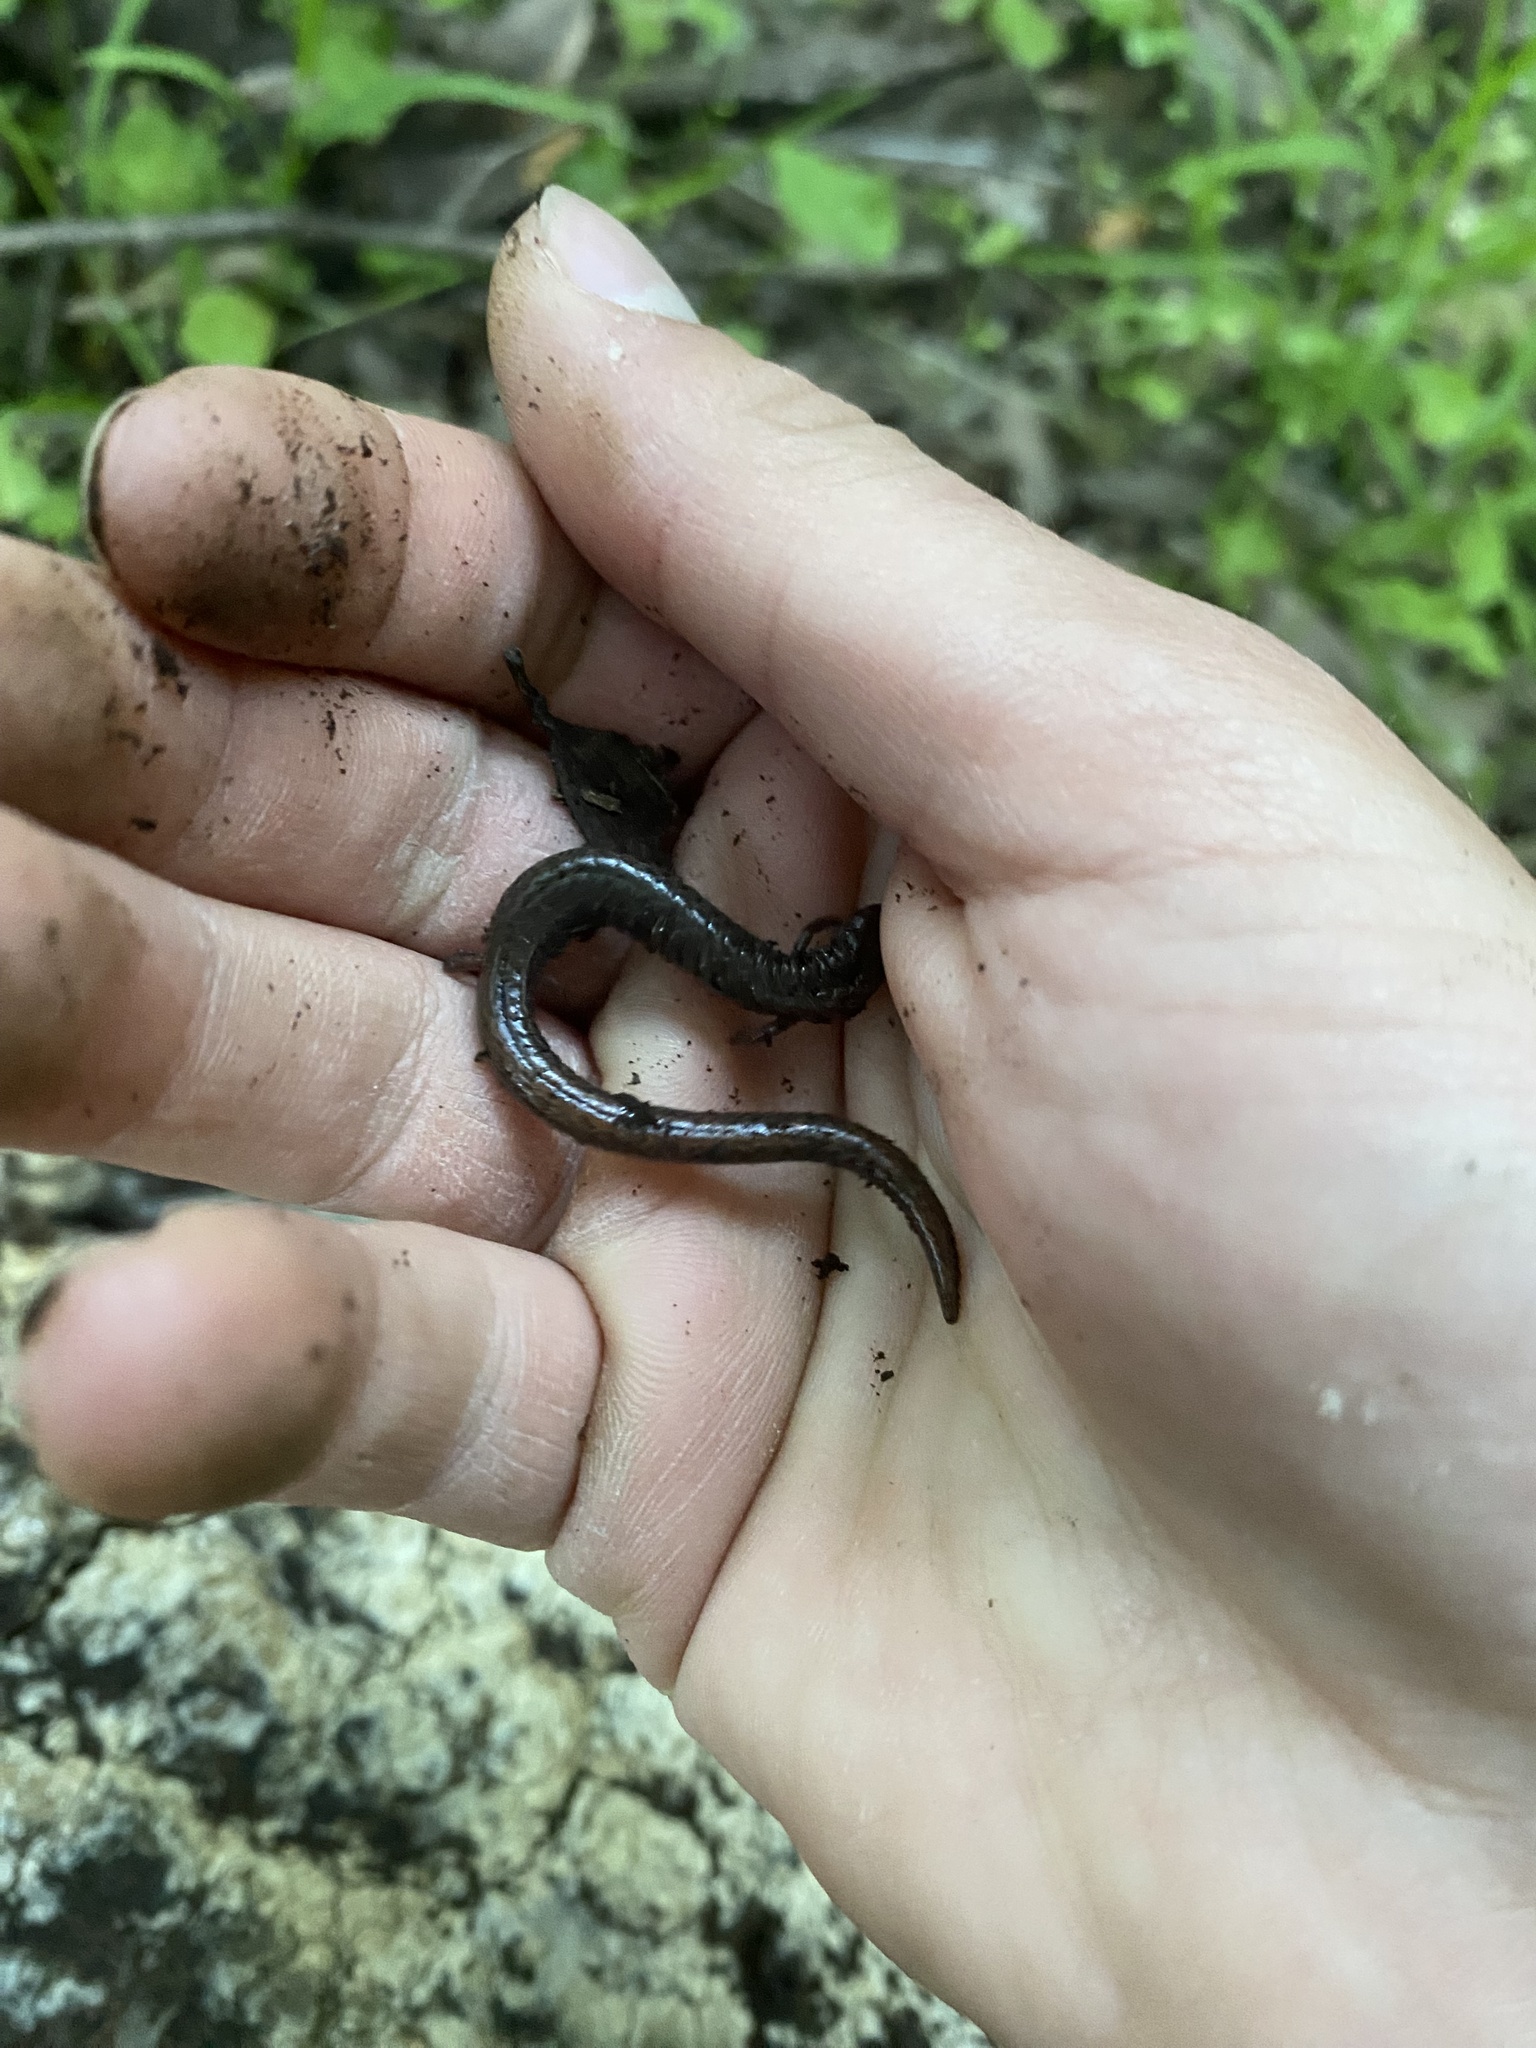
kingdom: Animalia
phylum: Chordata
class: Amphibia
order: Caudata
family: Plethodontidae
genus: Batrachoseps
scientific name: Batrachoseps attenuatus
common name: California slender salamander
